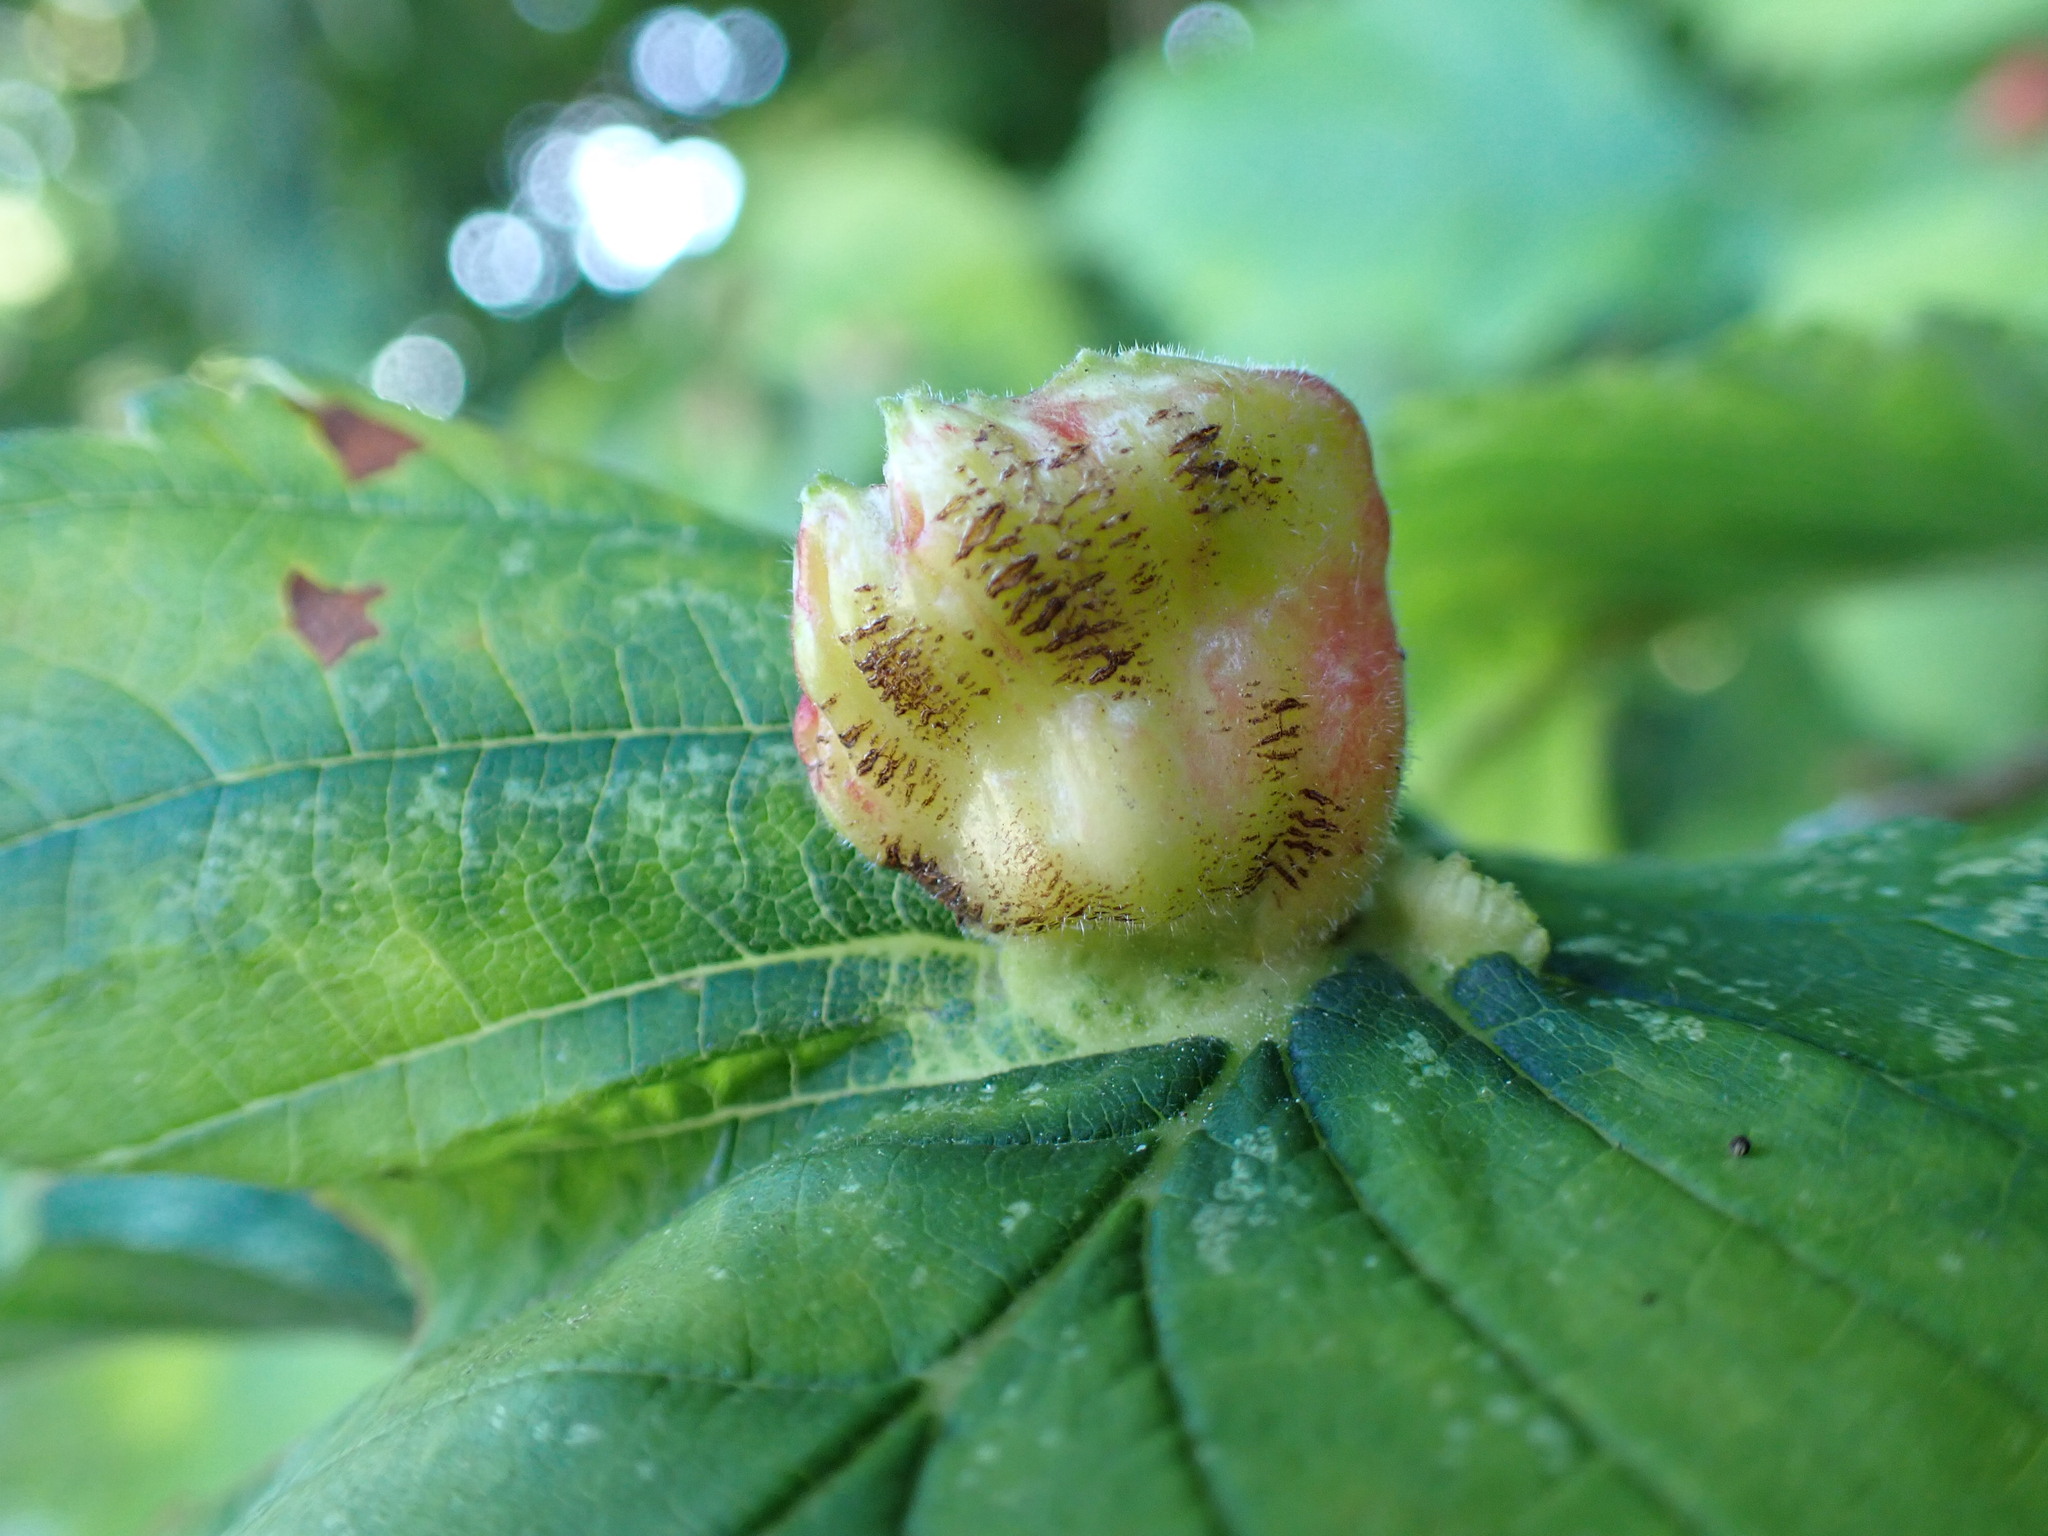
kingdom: Animalia
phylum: Arthropoda
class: Insecta
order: Hemiptera
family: Aphididae
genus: Colopha
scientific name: Colopha compressa
